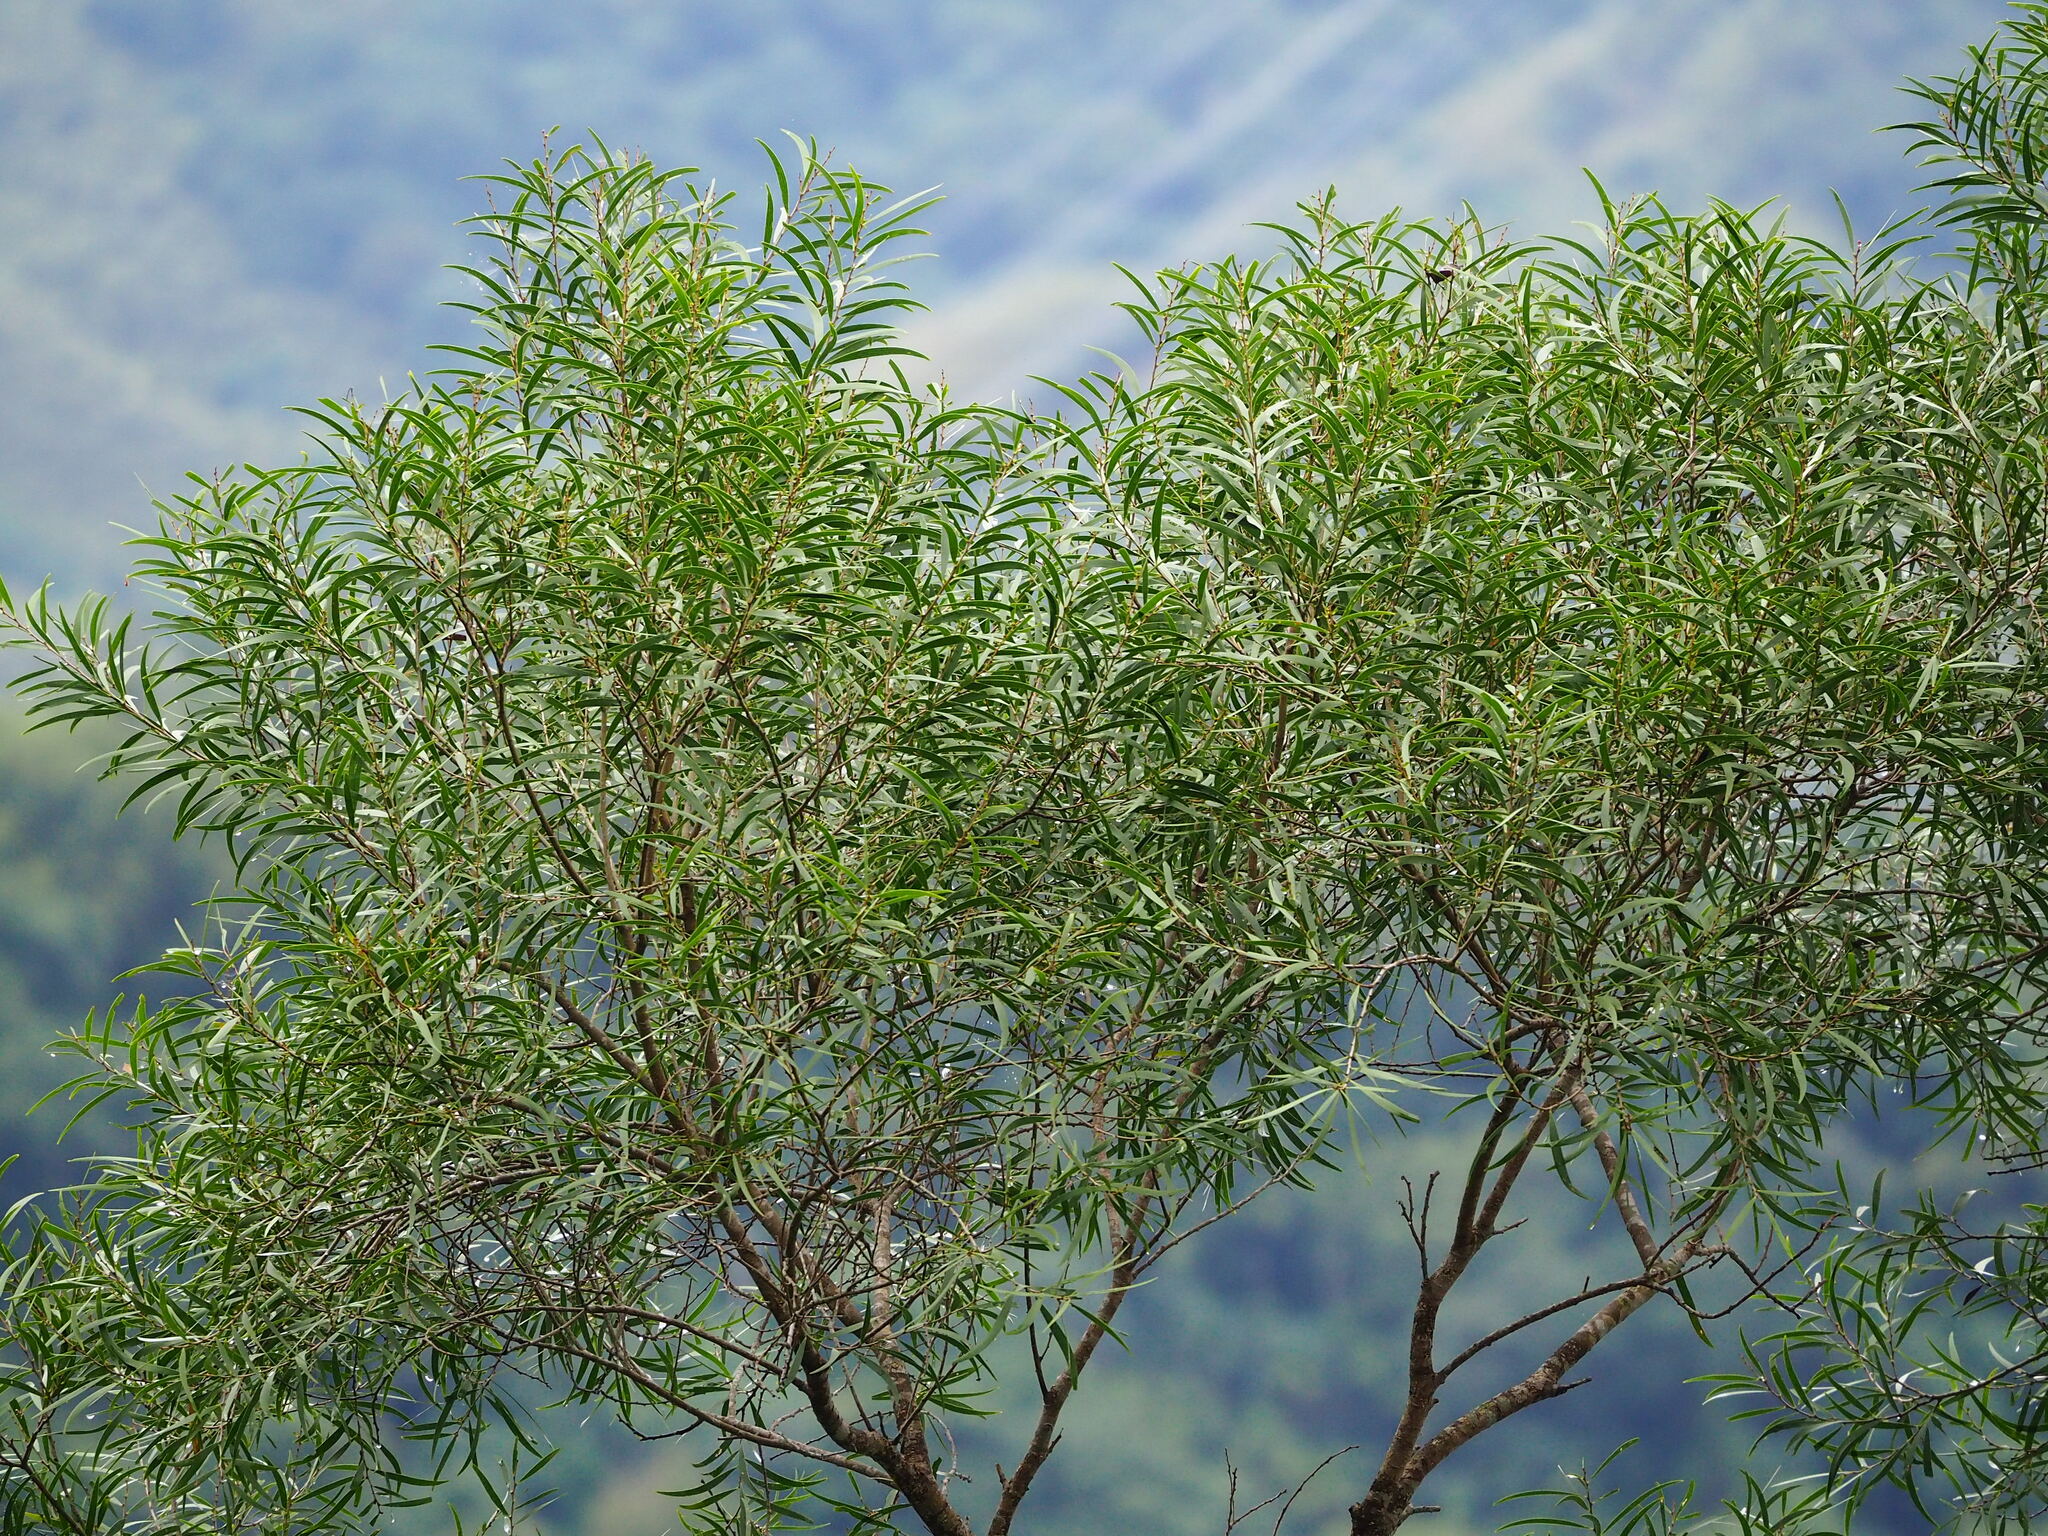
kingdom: Plantae
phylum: Tracheophyta
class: Magnoliopsida
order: Fabales
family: Fabaceae
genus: Acacia
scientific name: Acacia confusa
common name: Formosan koa
